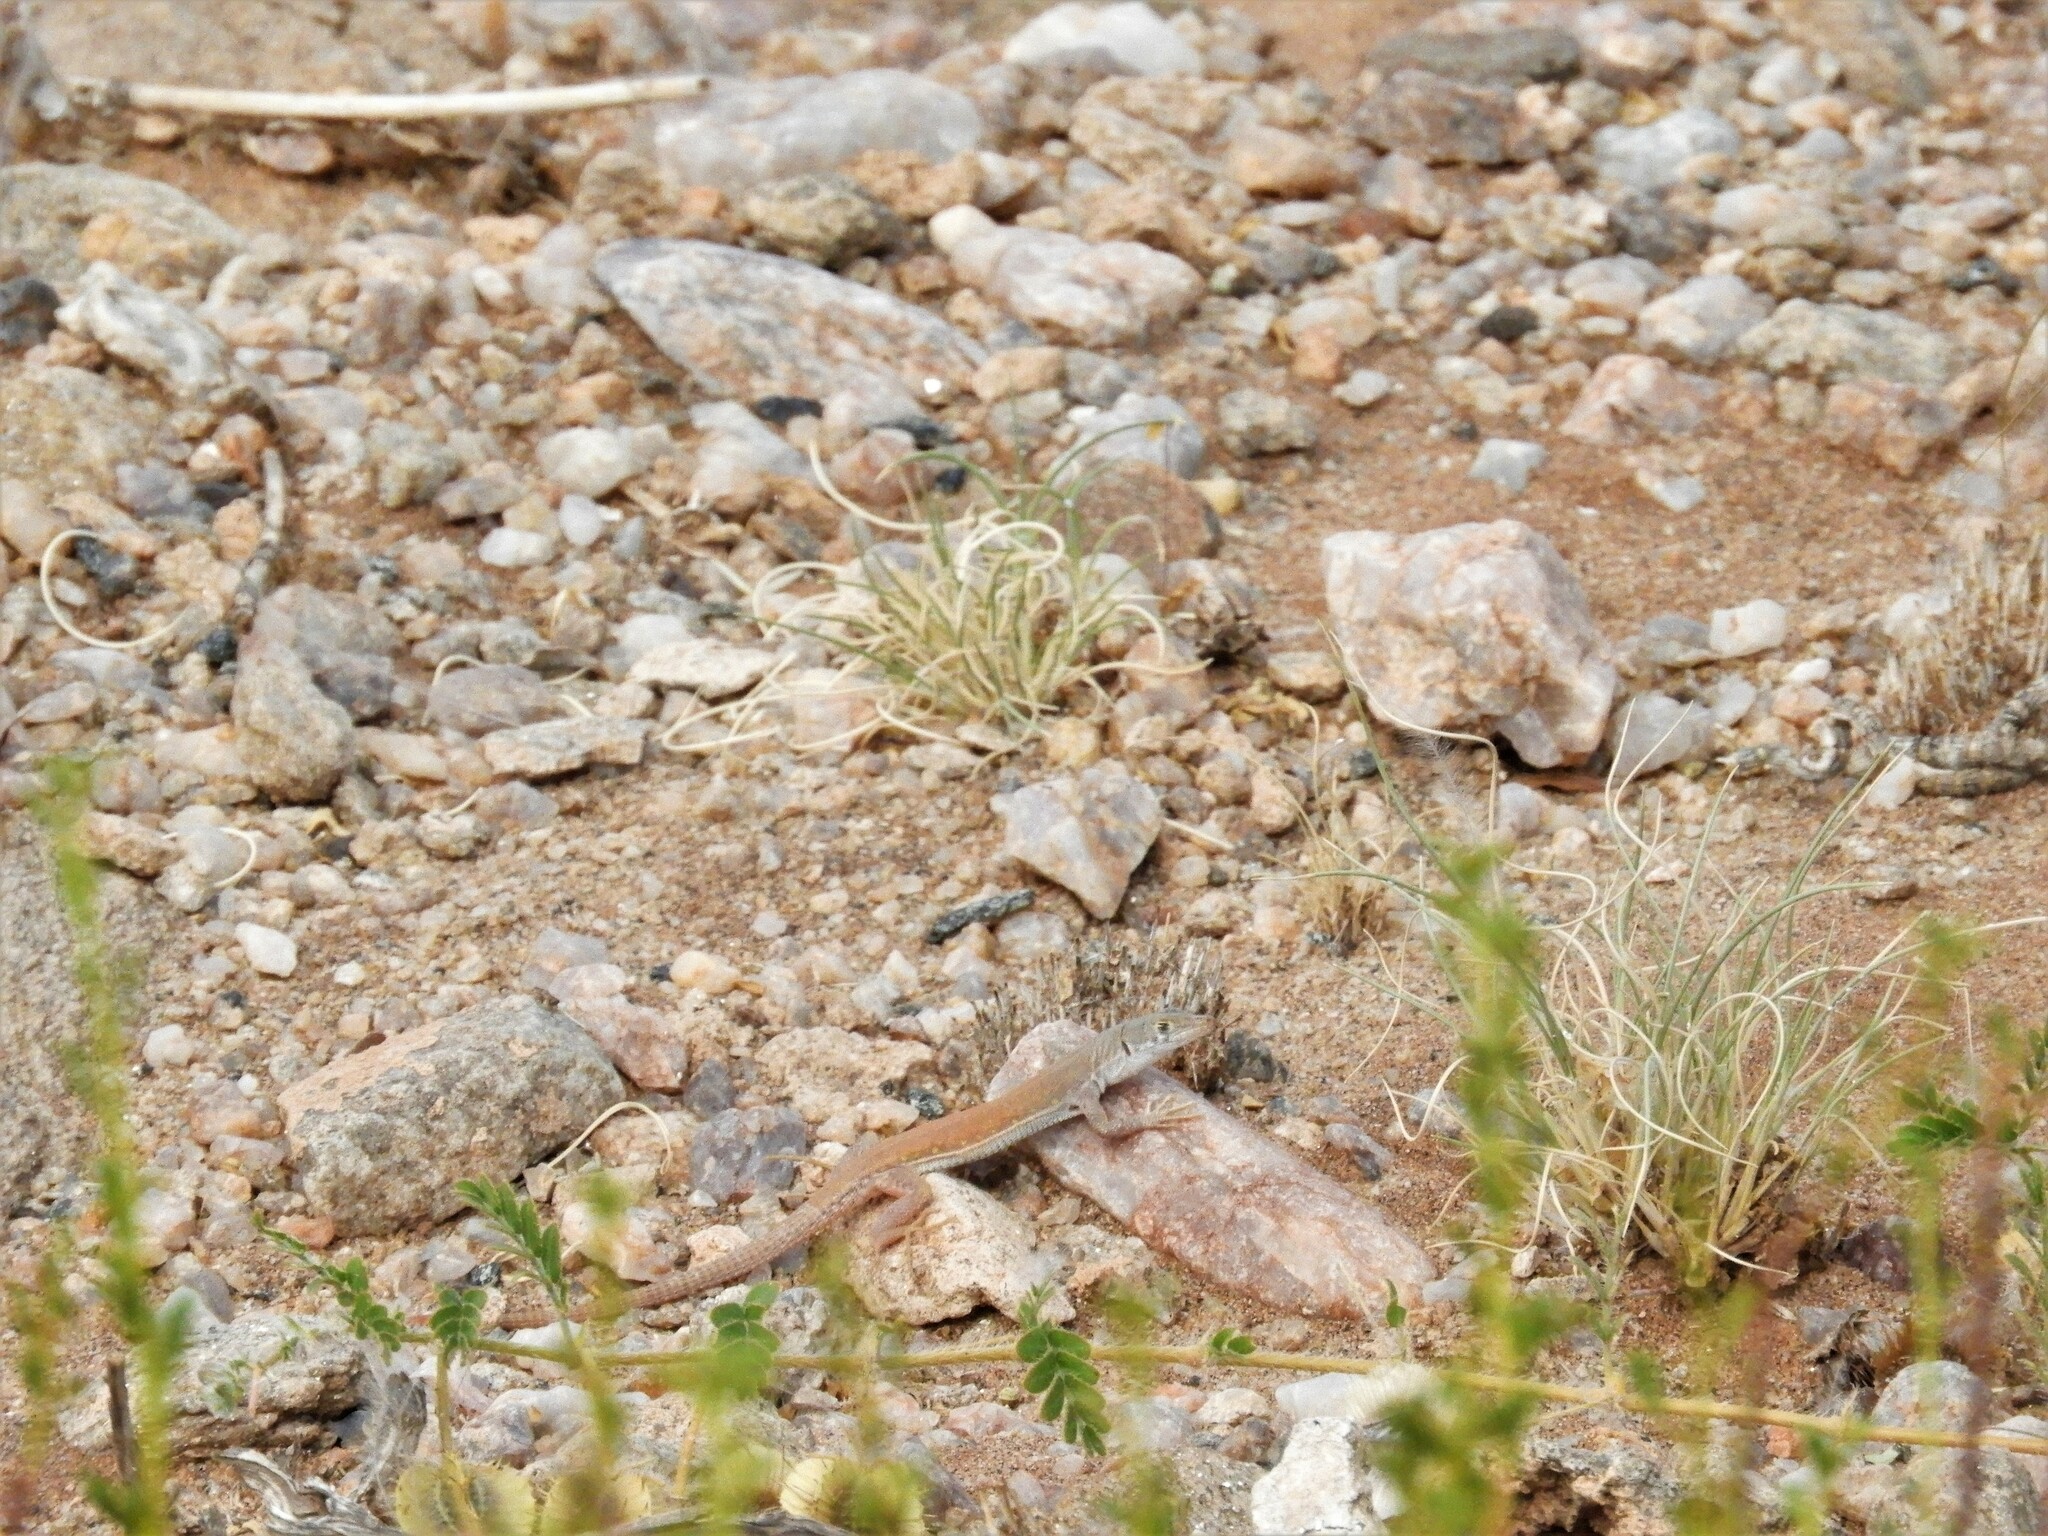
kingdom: Animalia
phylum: Chordata
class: Squamata
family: Lacertidae
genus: Pedioplanis
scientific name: Pedioplanis inornata
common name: Plain sand lizard
